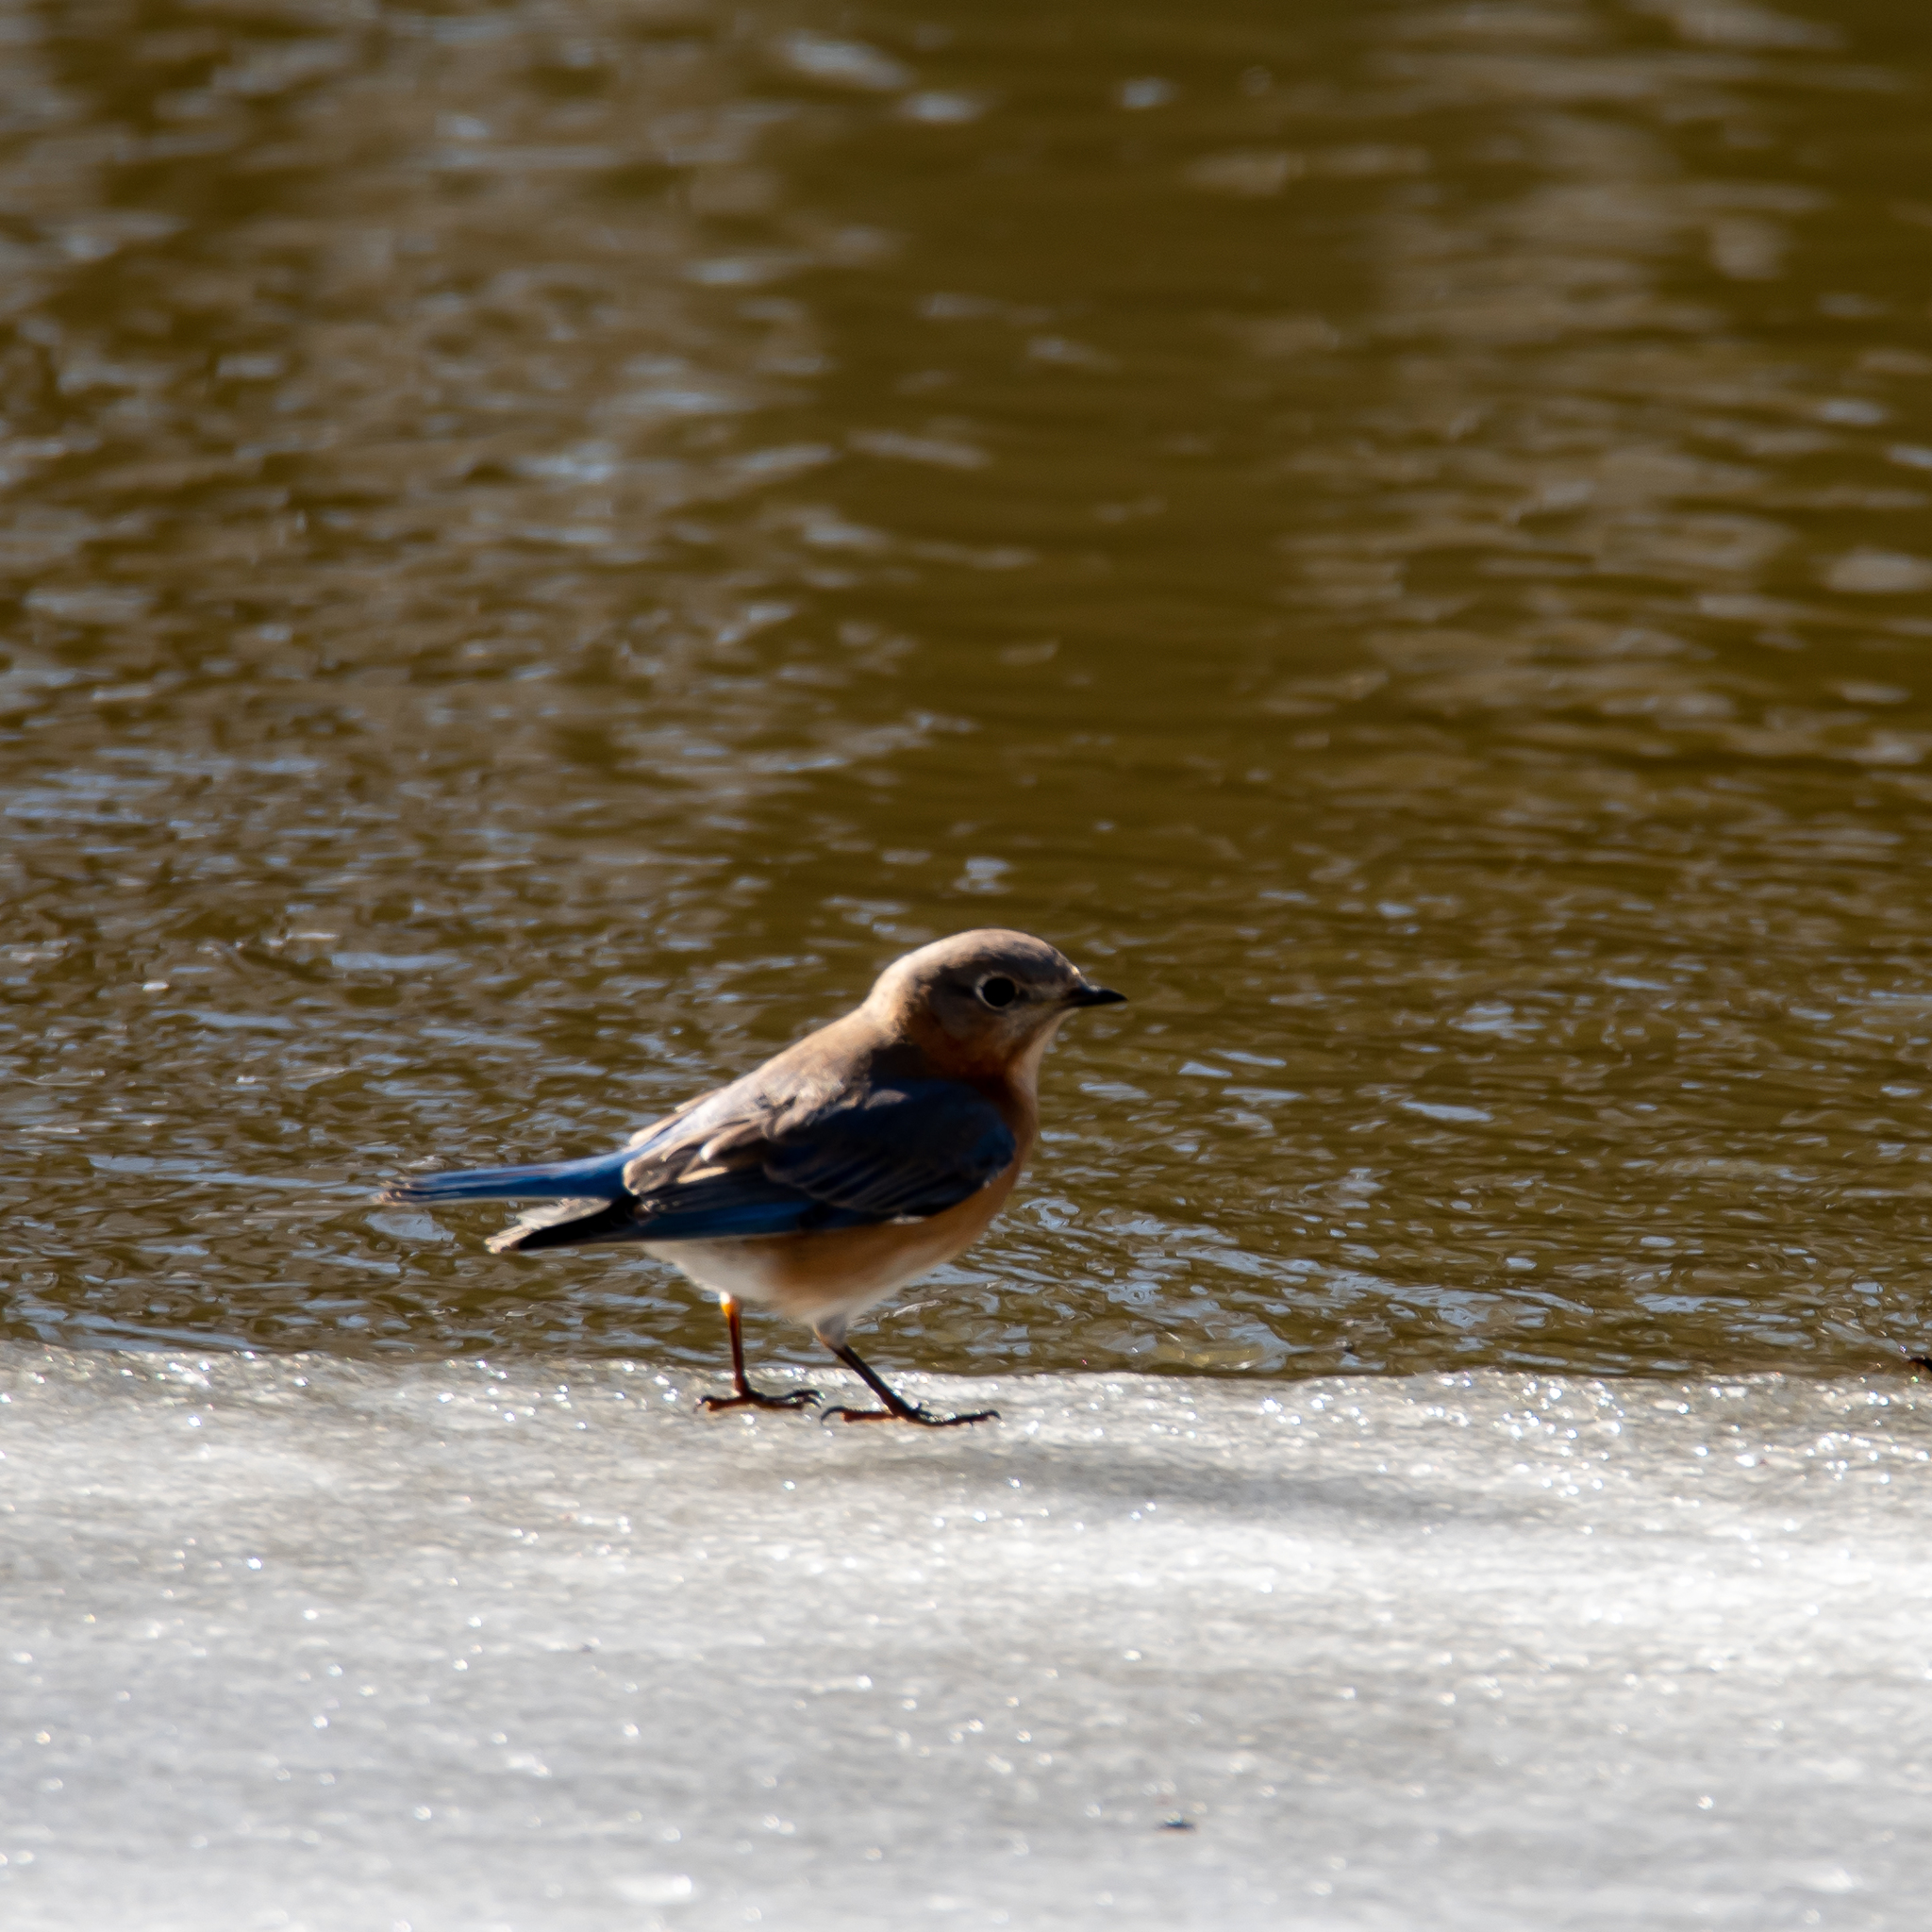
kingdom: Animalia
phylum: Chordata
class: Aves
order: Passeriformes
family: Turdidae
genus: Sialia
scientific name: Sialia sialis
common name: Eastern bluebird
